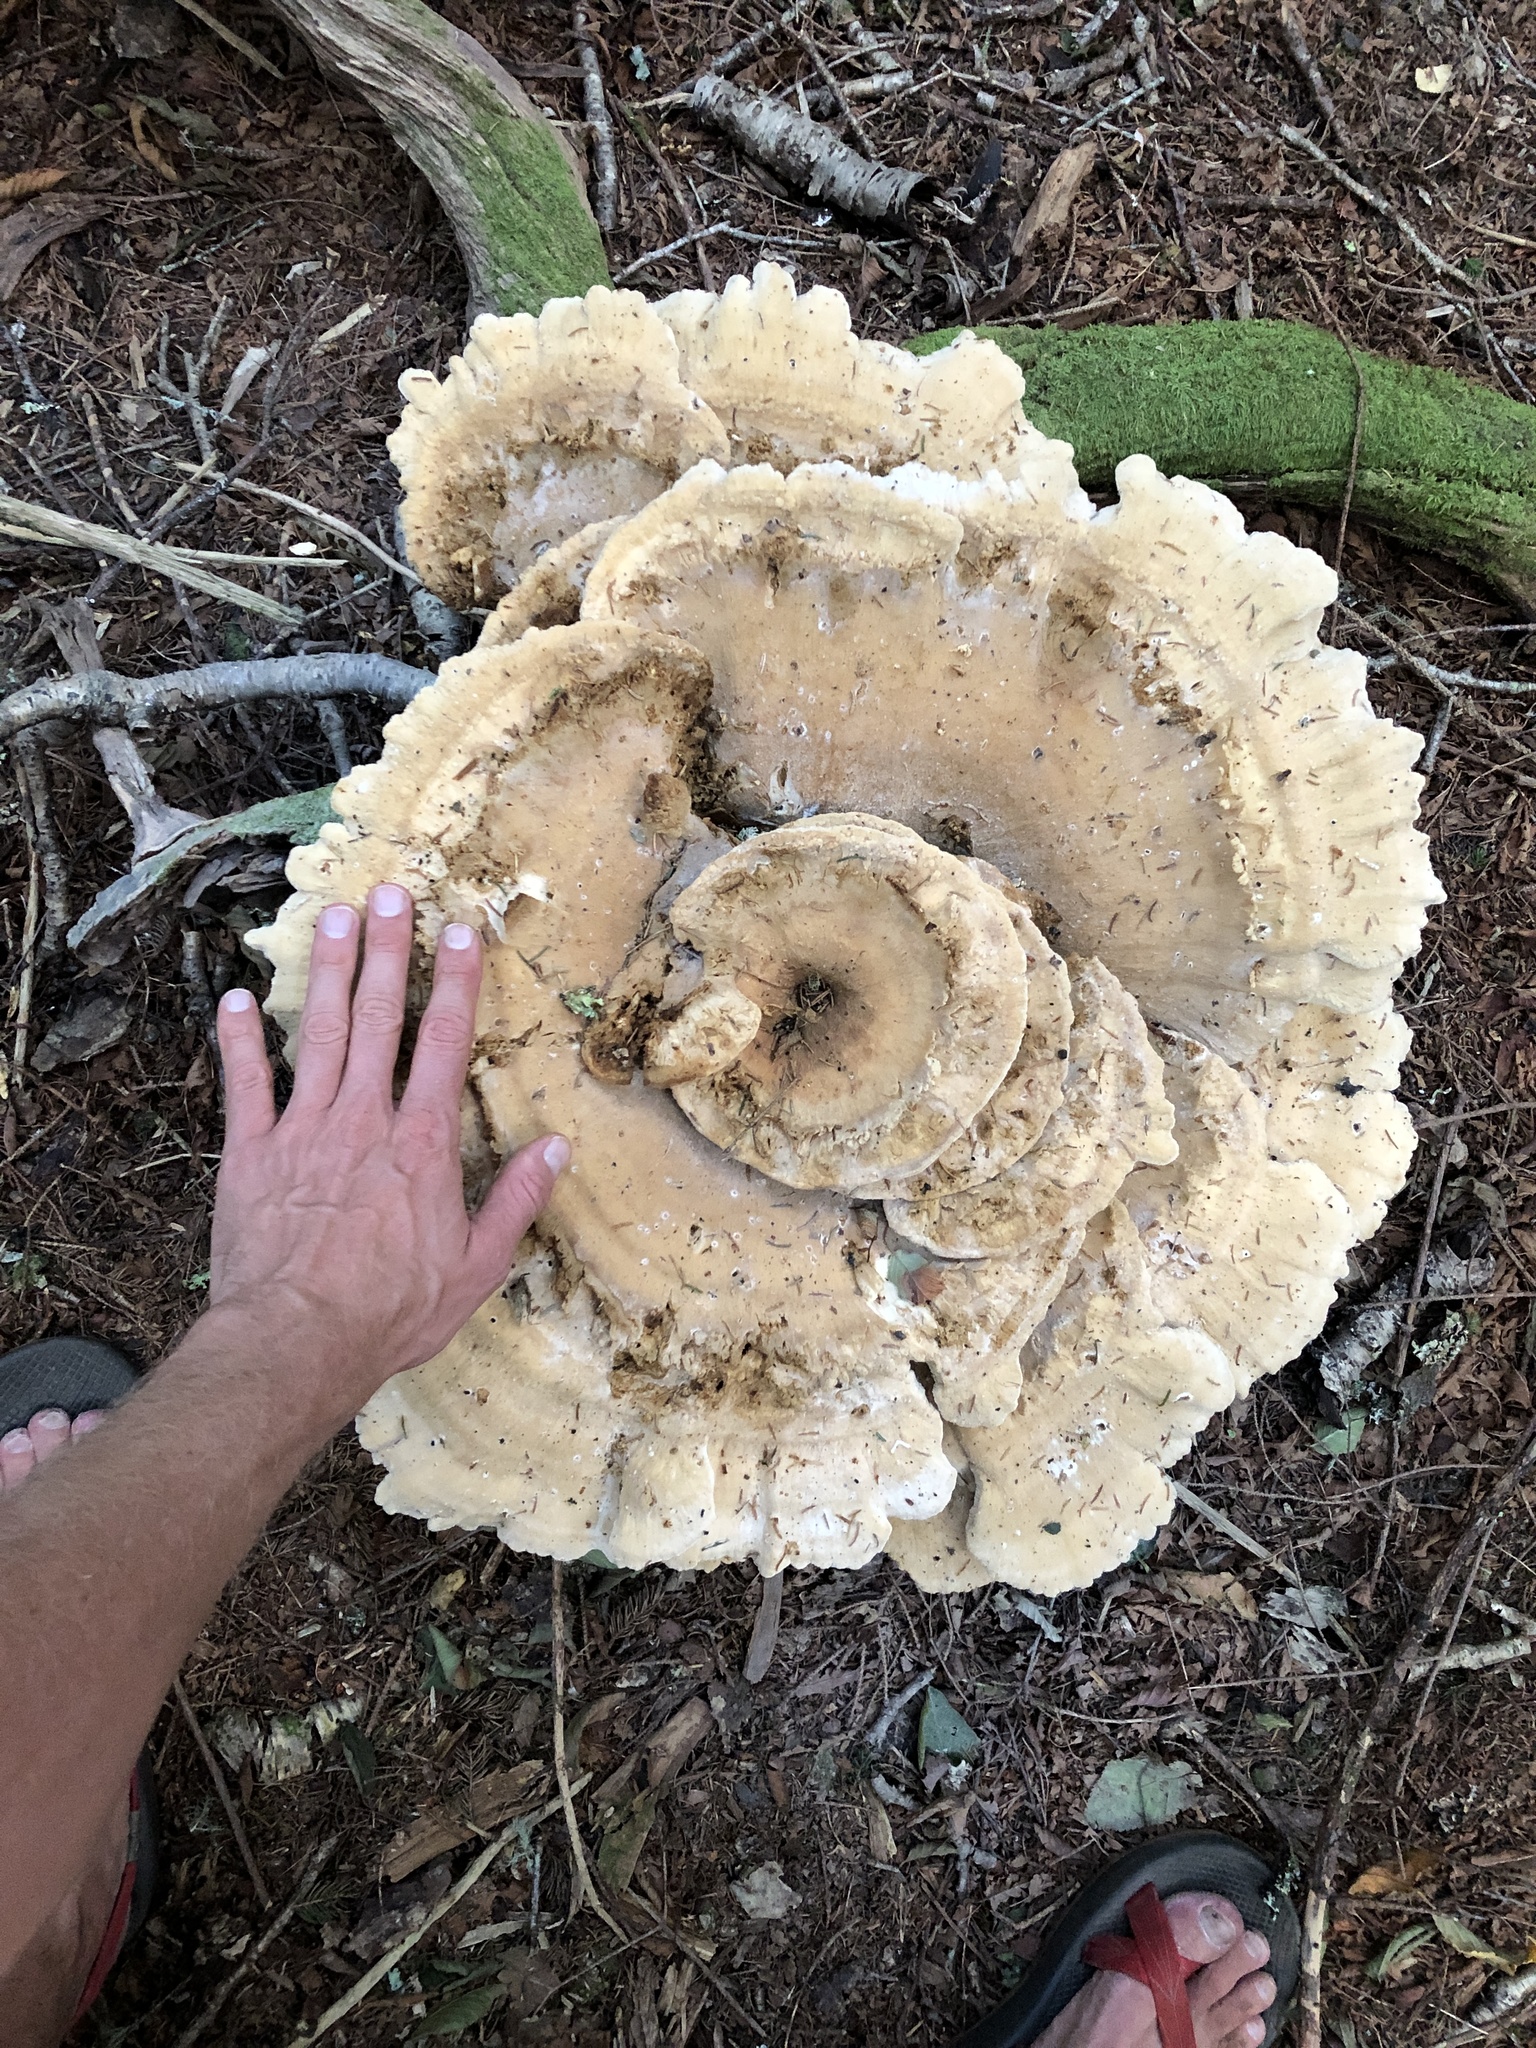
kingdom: Fungi
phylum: Basidiomycota
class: Agaricomycetes
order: Russulales
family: Bondarzewiaceae
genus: Bondarzewia
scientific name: Bondarzewia berkeleyi
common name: Berkeley's polypore
